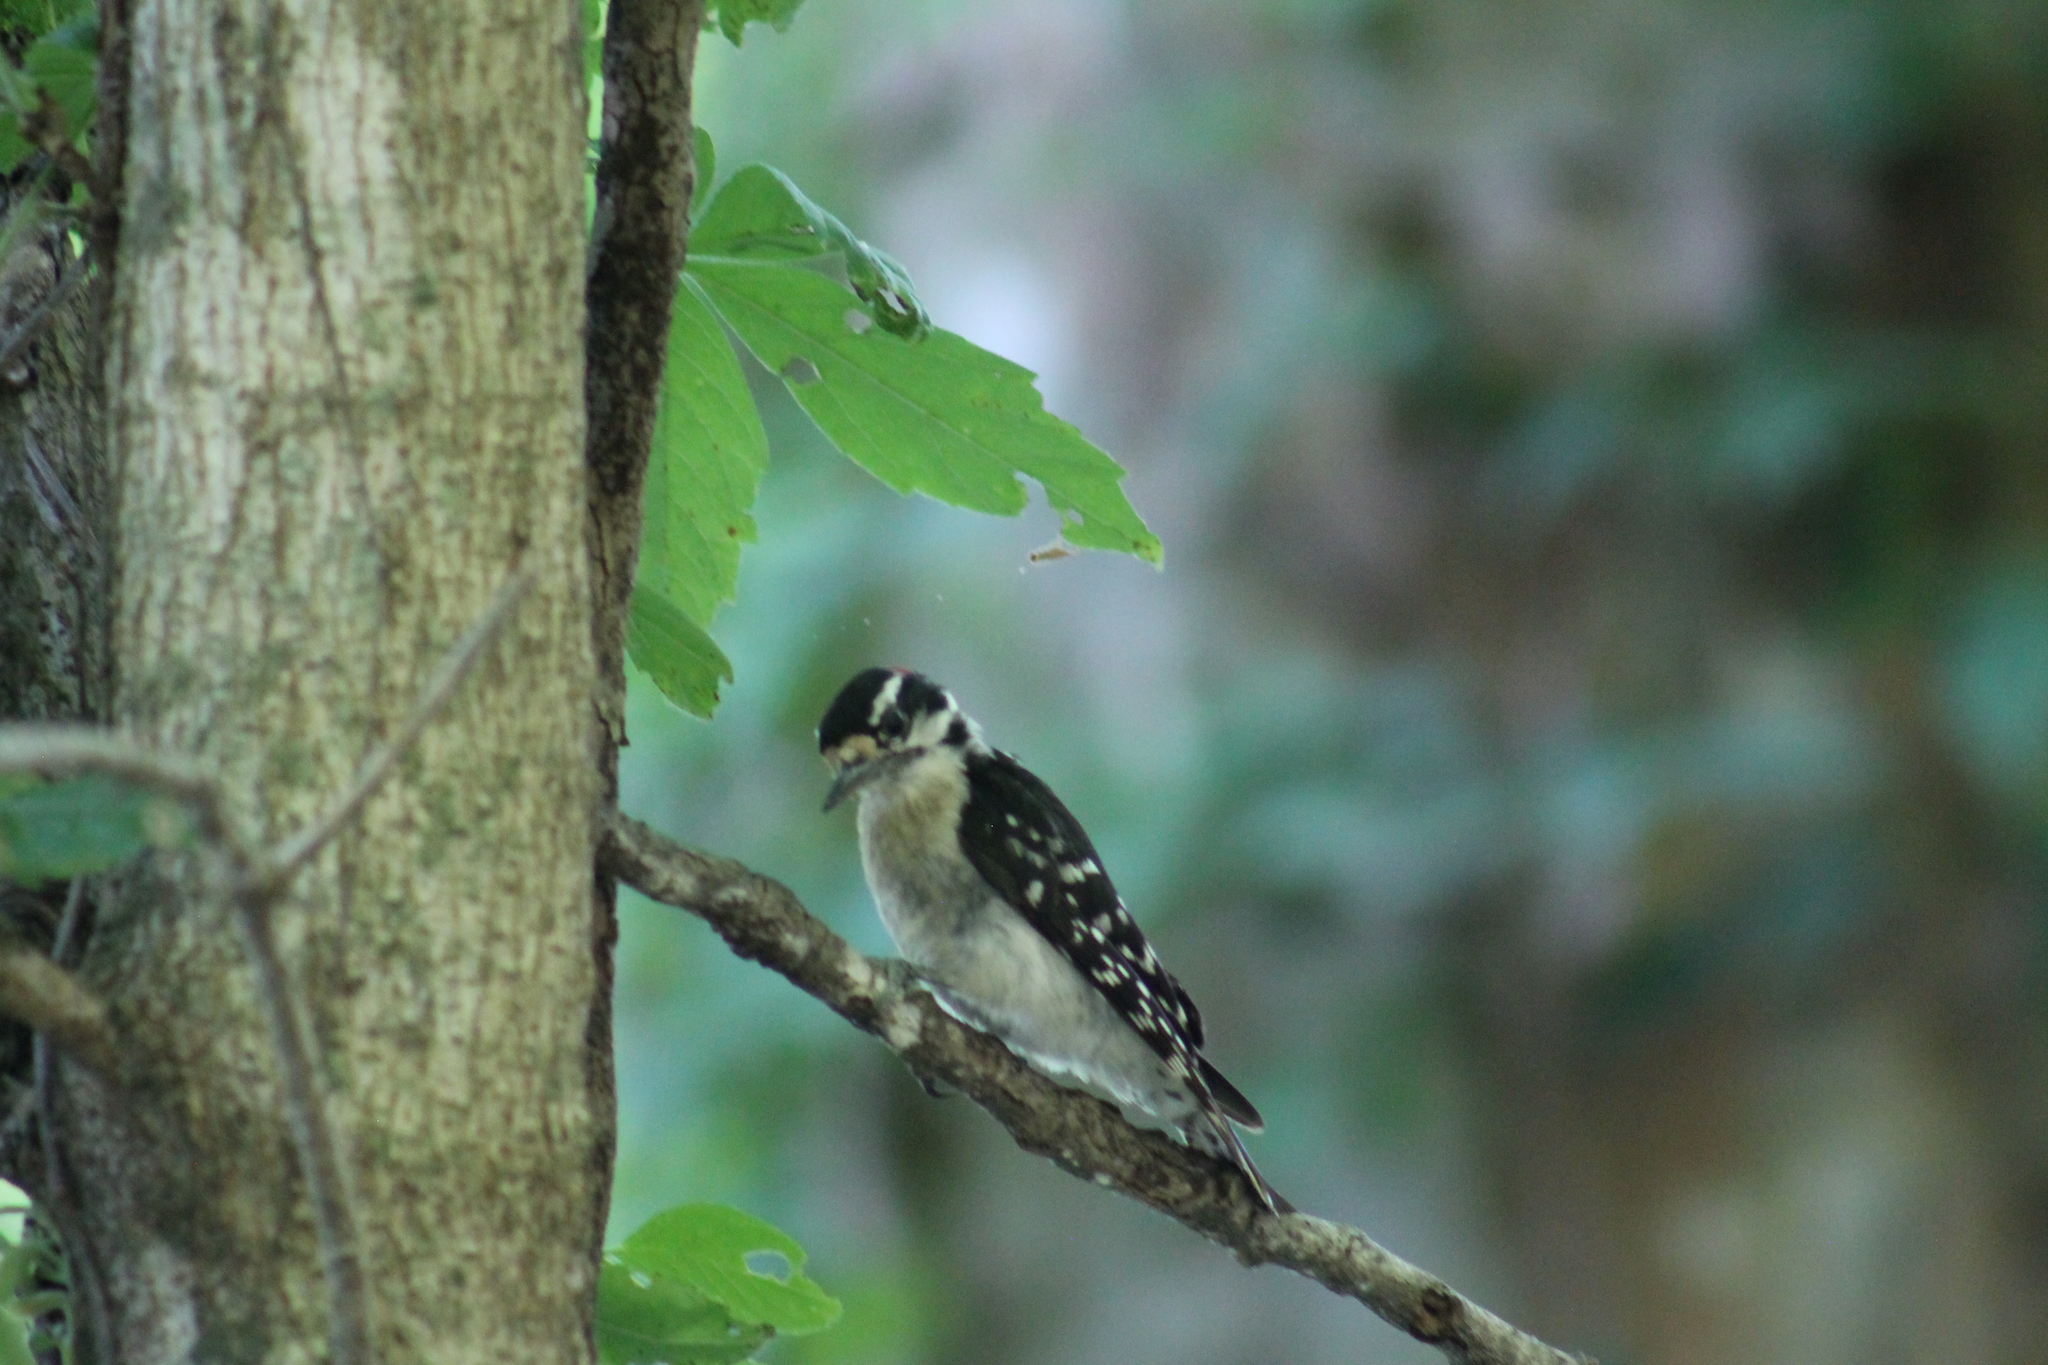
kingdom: Animalia
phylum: Chordata
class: Aves
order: Piciformes
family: Picidae
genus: Dryobates
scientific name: Dryobates pubescens
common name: Downy woodpecker
